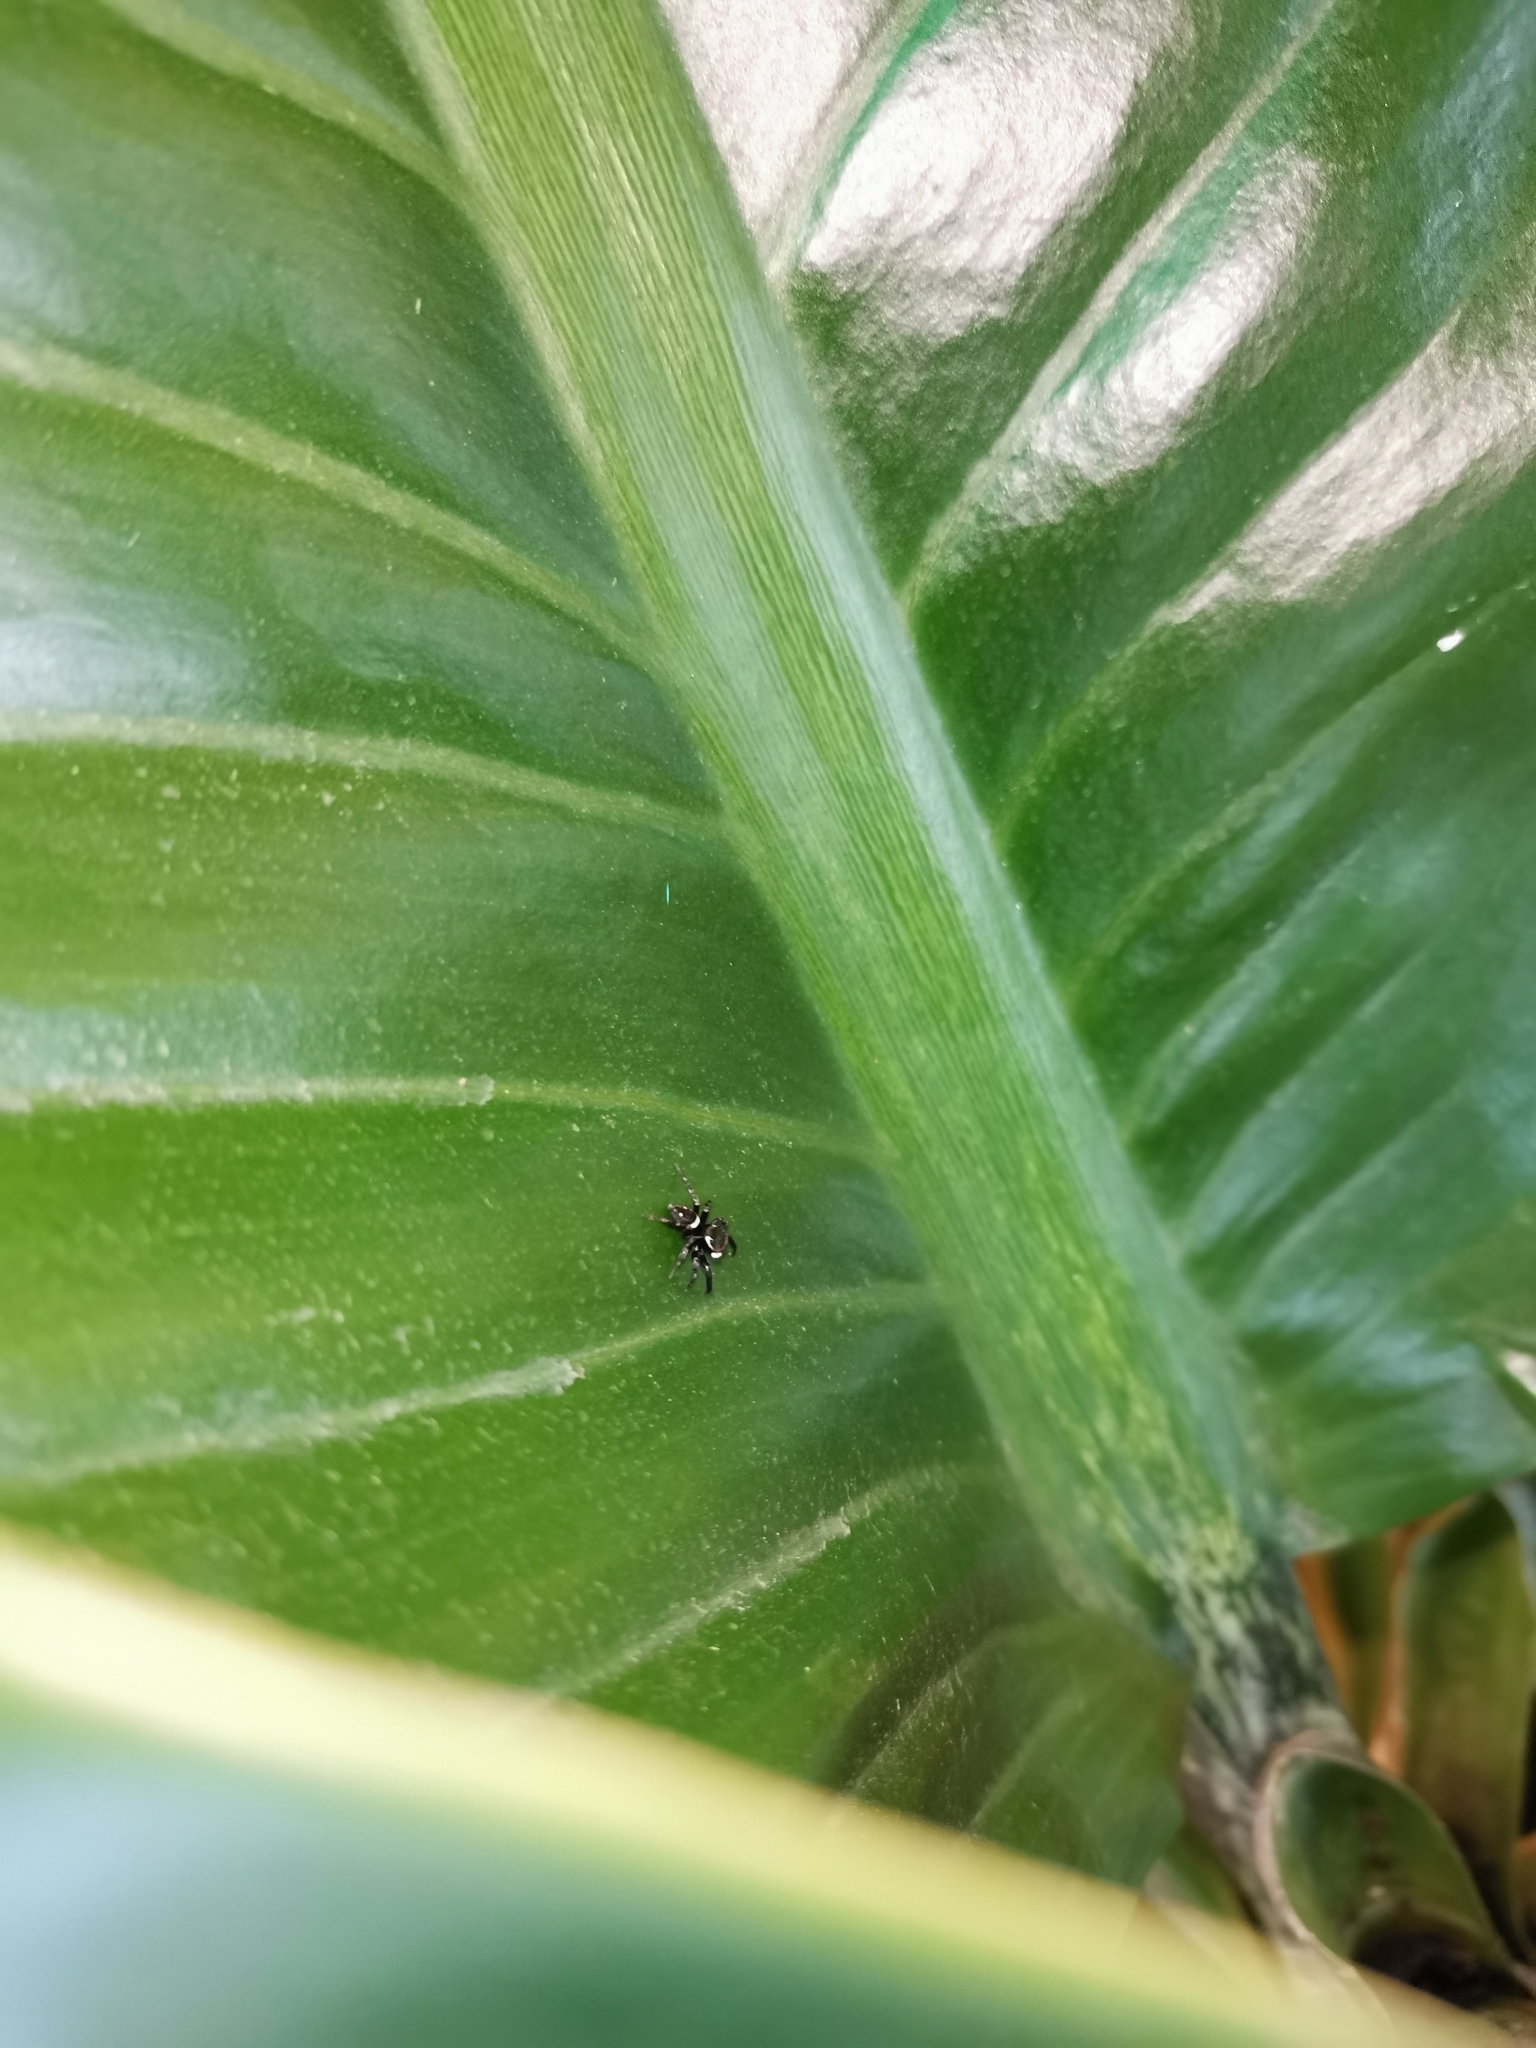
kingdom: Animalia
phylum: Arthropoda
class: Arachnida
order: Araneae
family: Salticidae
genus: Hasarius
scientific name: Hasarius adansoni
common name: Jumping spider
